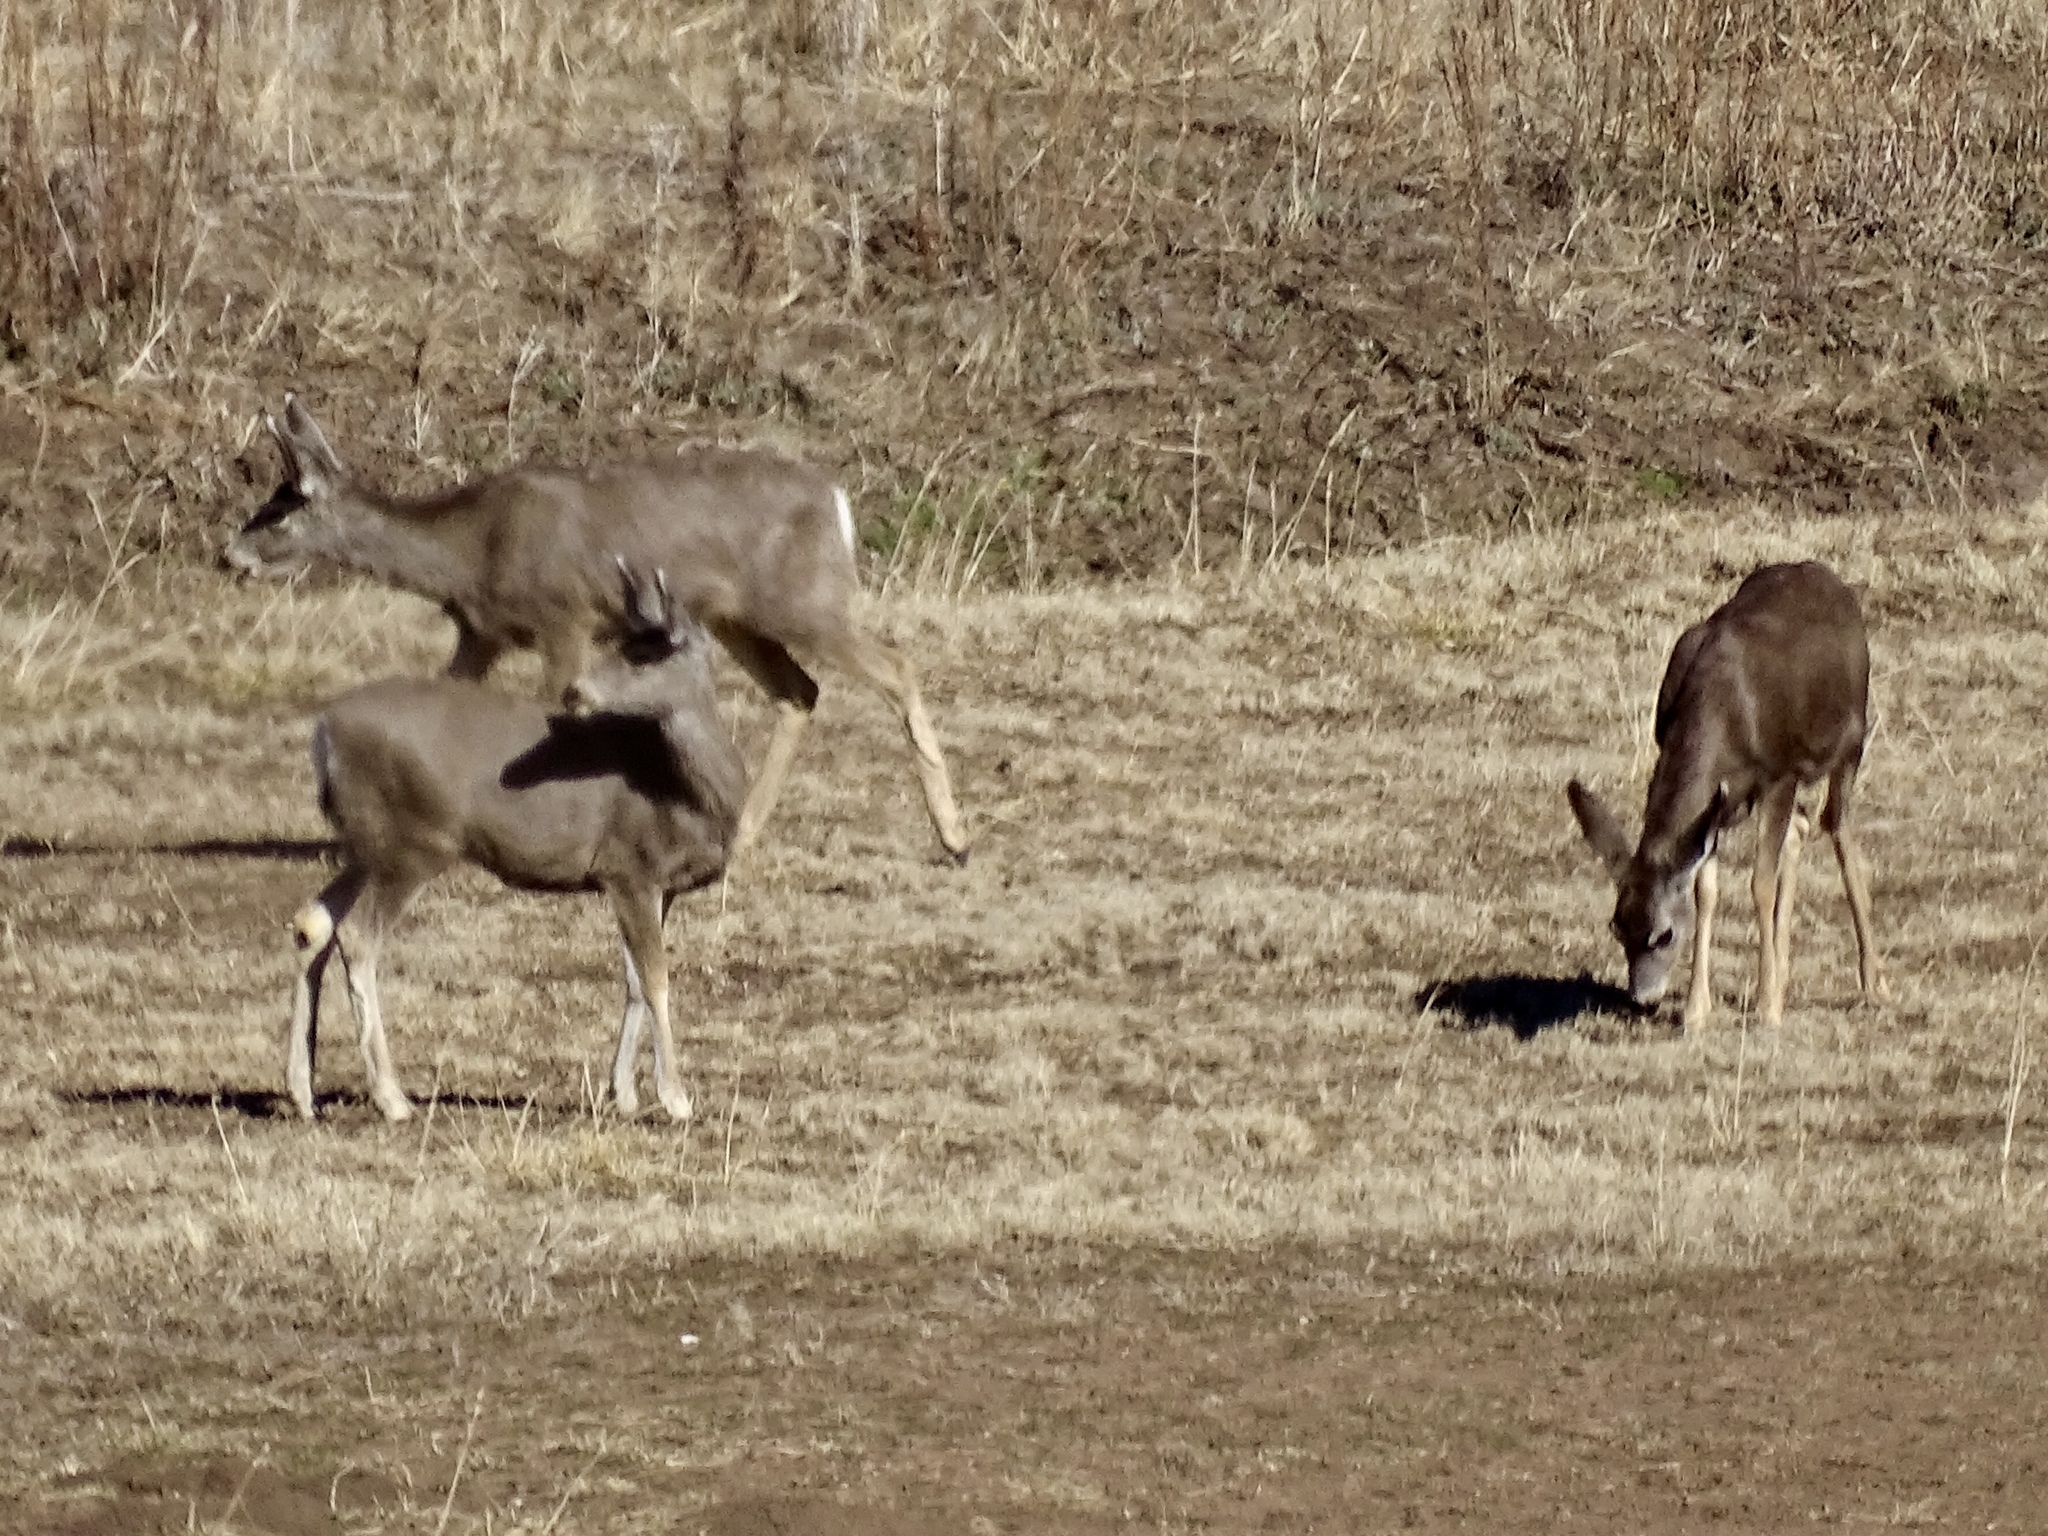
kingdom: Animalia
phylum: Chordata
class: Mammalia
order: Artiodactyla
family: Cervidae
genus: Odocoileus
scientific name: Odocoileus hemionus
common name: Mule deer
